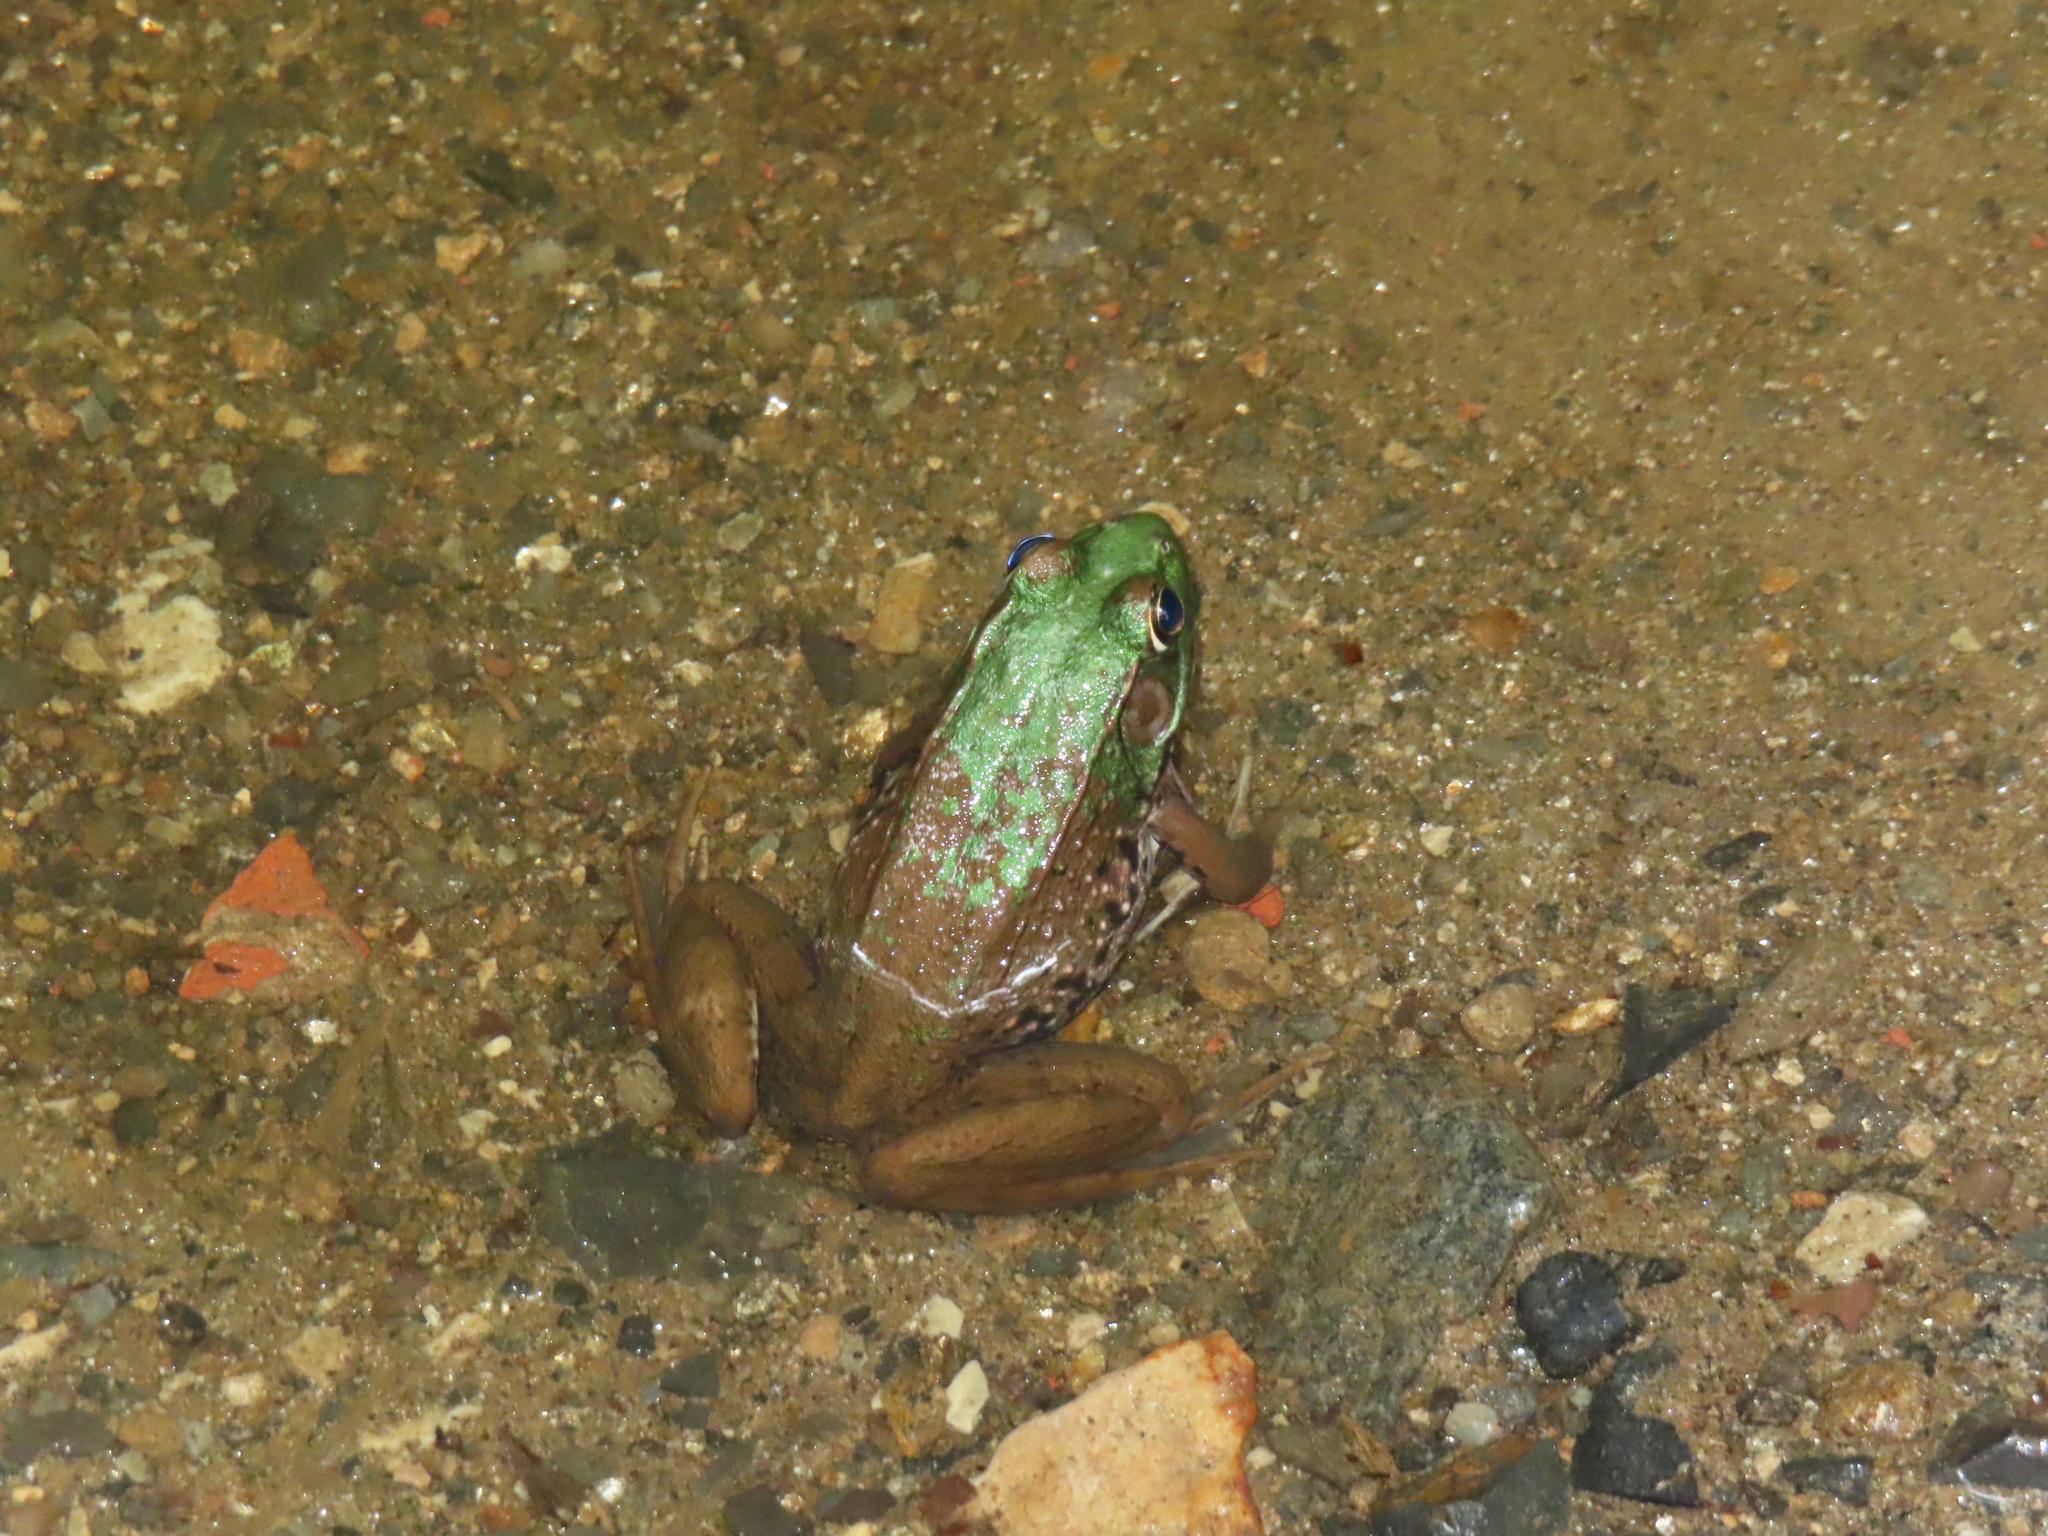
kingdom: Animalia
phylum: Chordata
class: Amphibia
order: Anura
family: Ranidae
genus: Lithobates
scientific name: Lithobates clamitans
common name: Green frog
